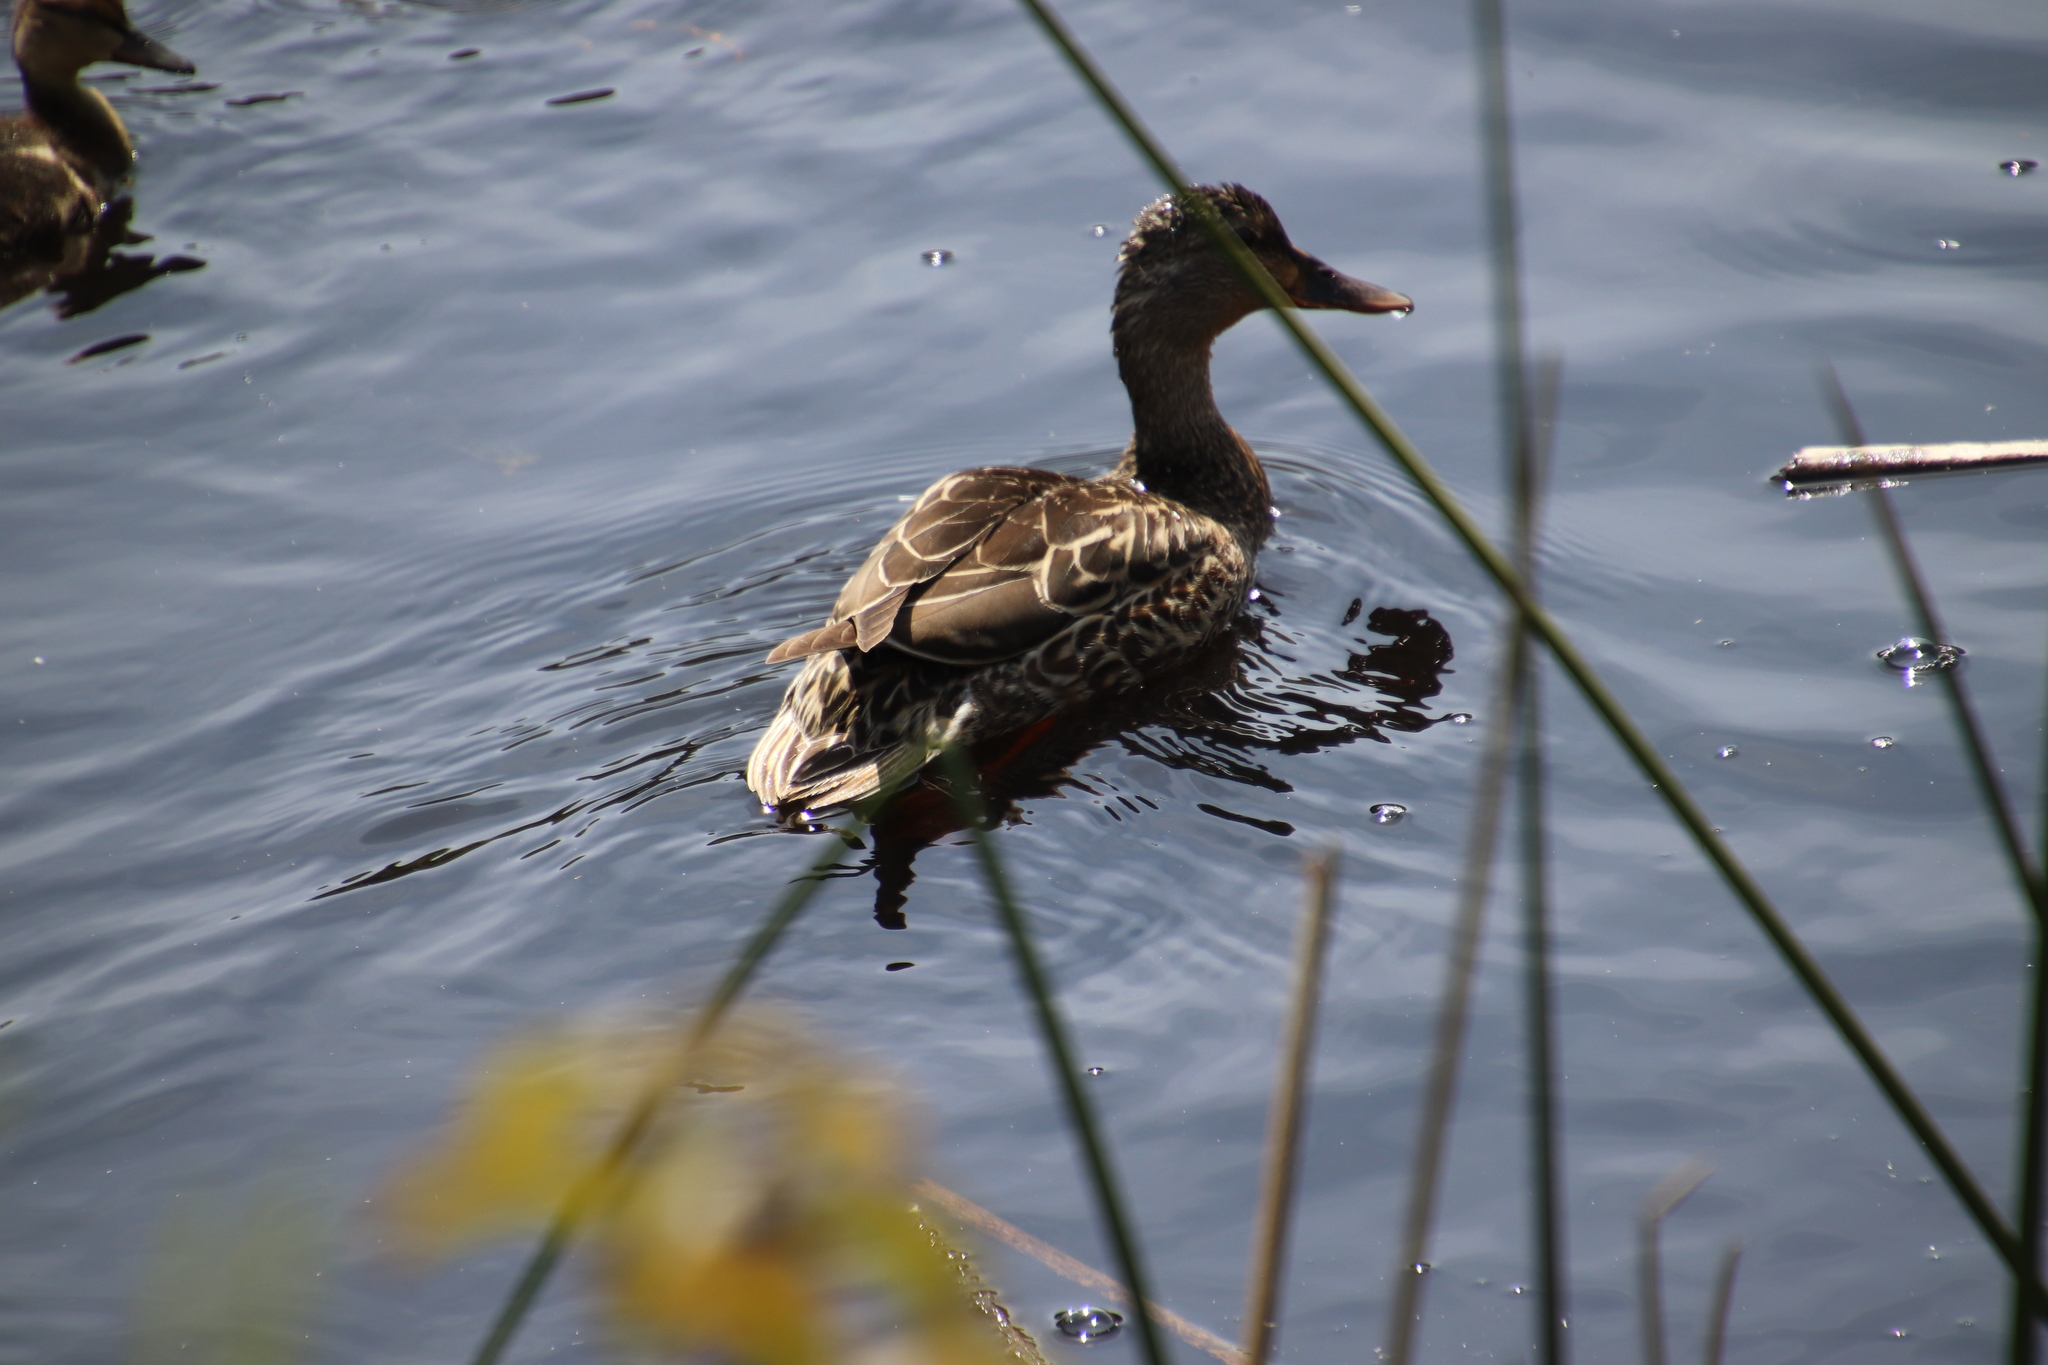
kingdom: Animalia
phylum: Chordata
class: Aves
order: Anseriformes
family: Anatidae
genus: Anas
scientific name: Anas platyrhynchos
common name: Mallard
